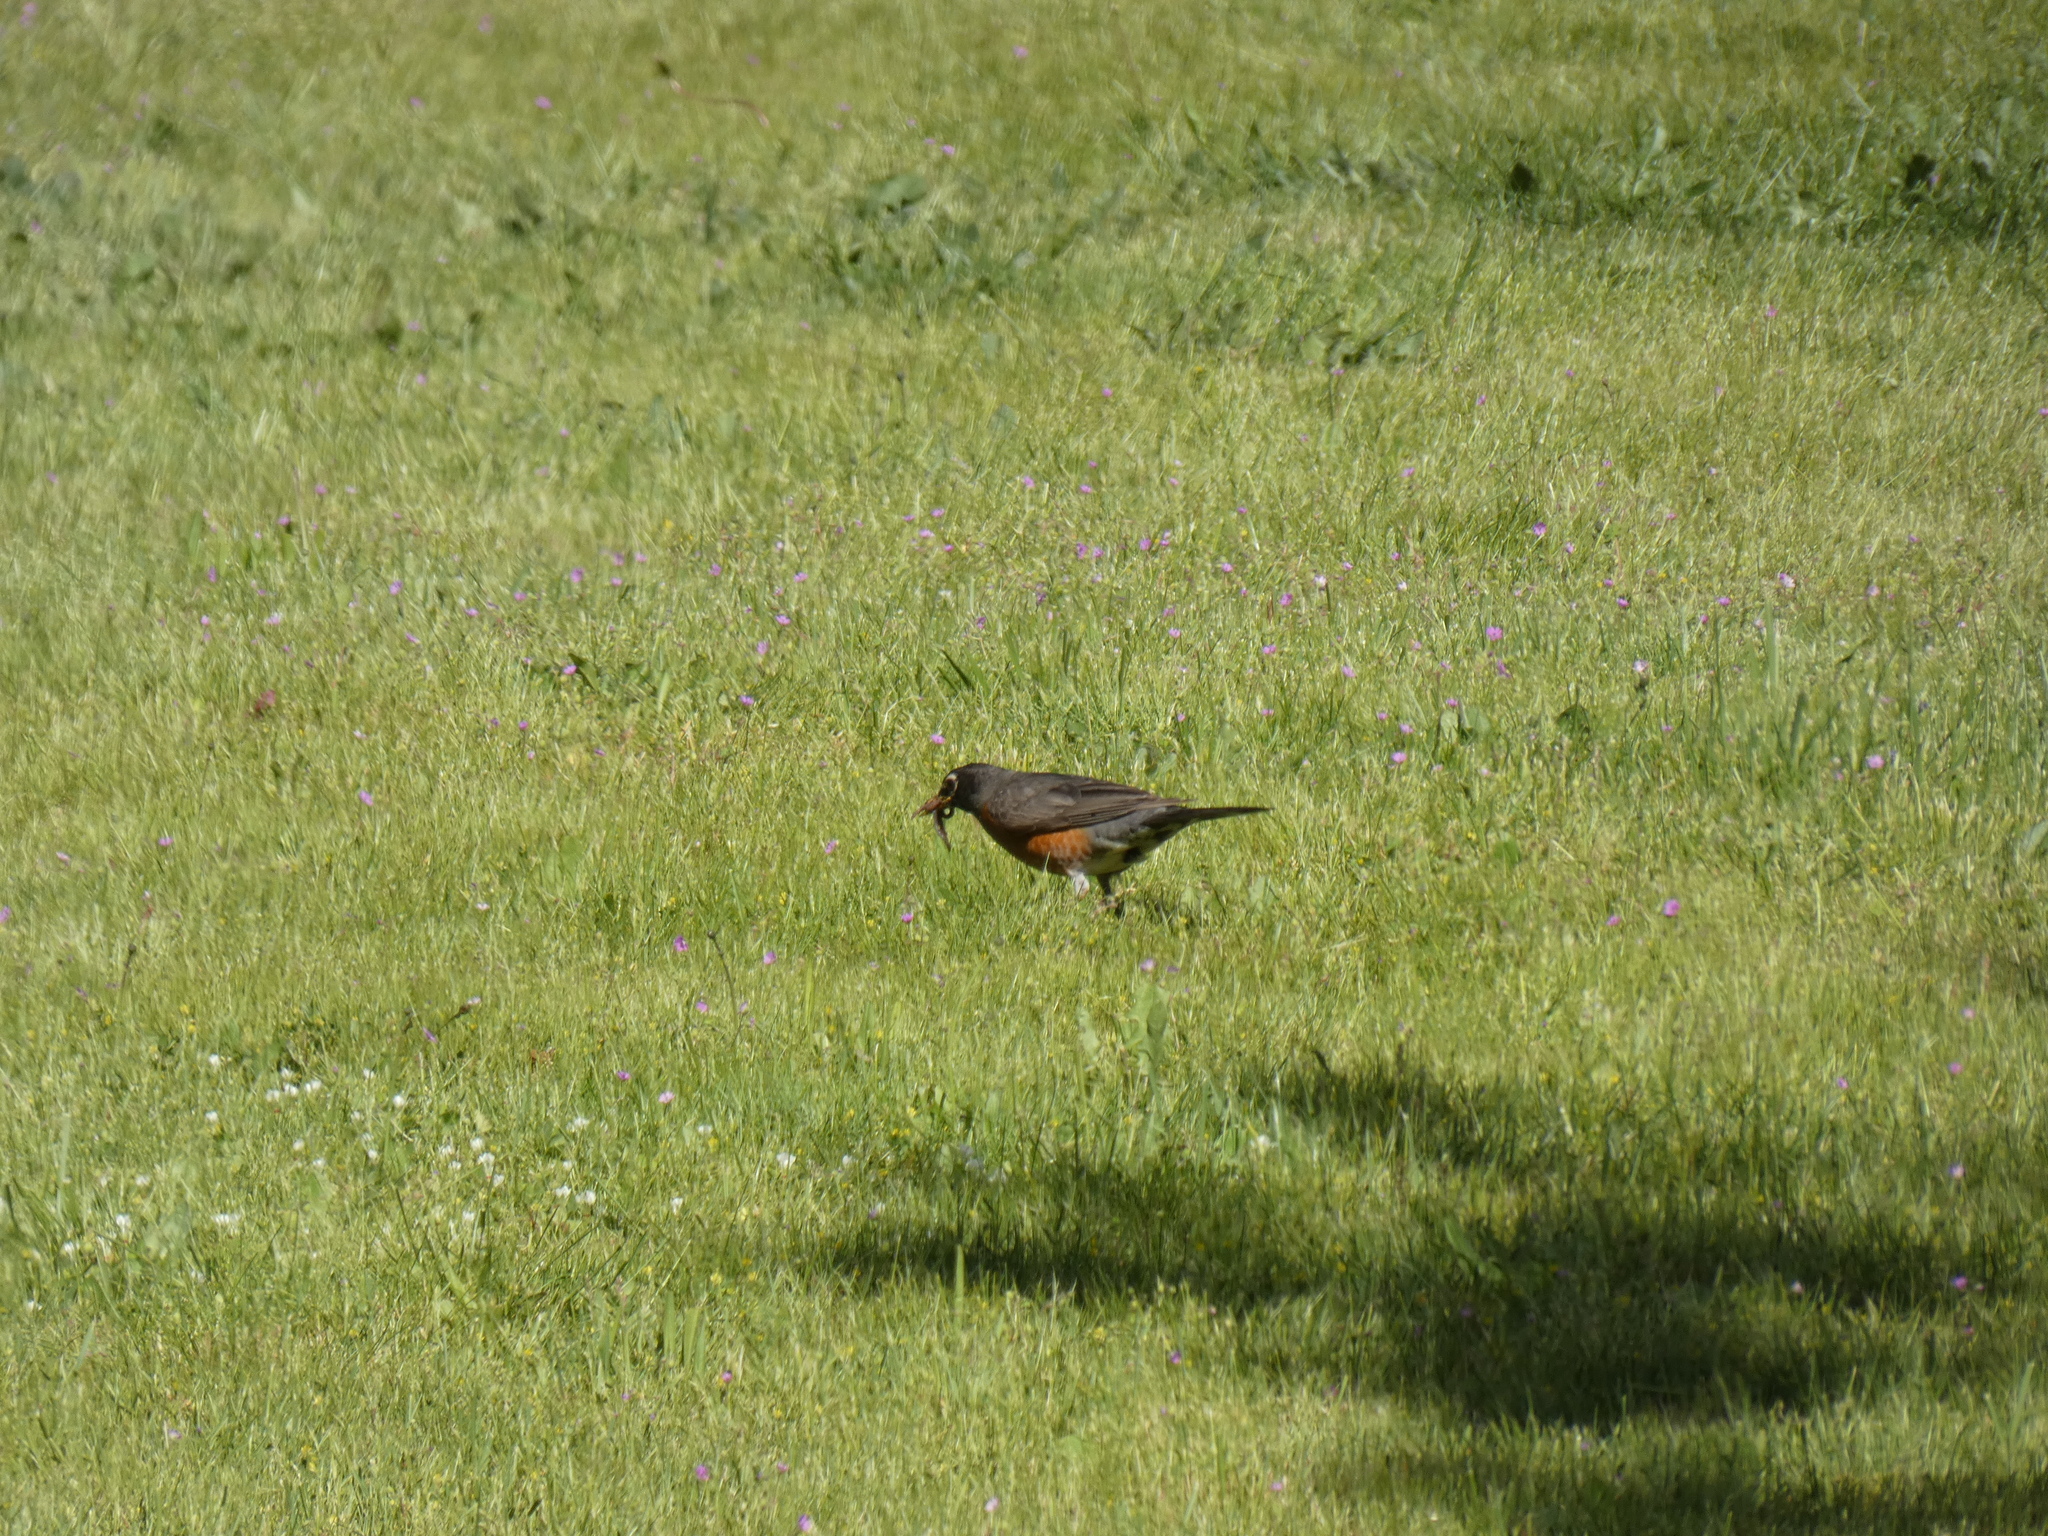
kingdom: Animalia
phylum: Chordata
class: Aves
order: Passeriformes
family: Turdidae
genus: Turdus
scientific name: Turdus migratorius
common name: American robin
